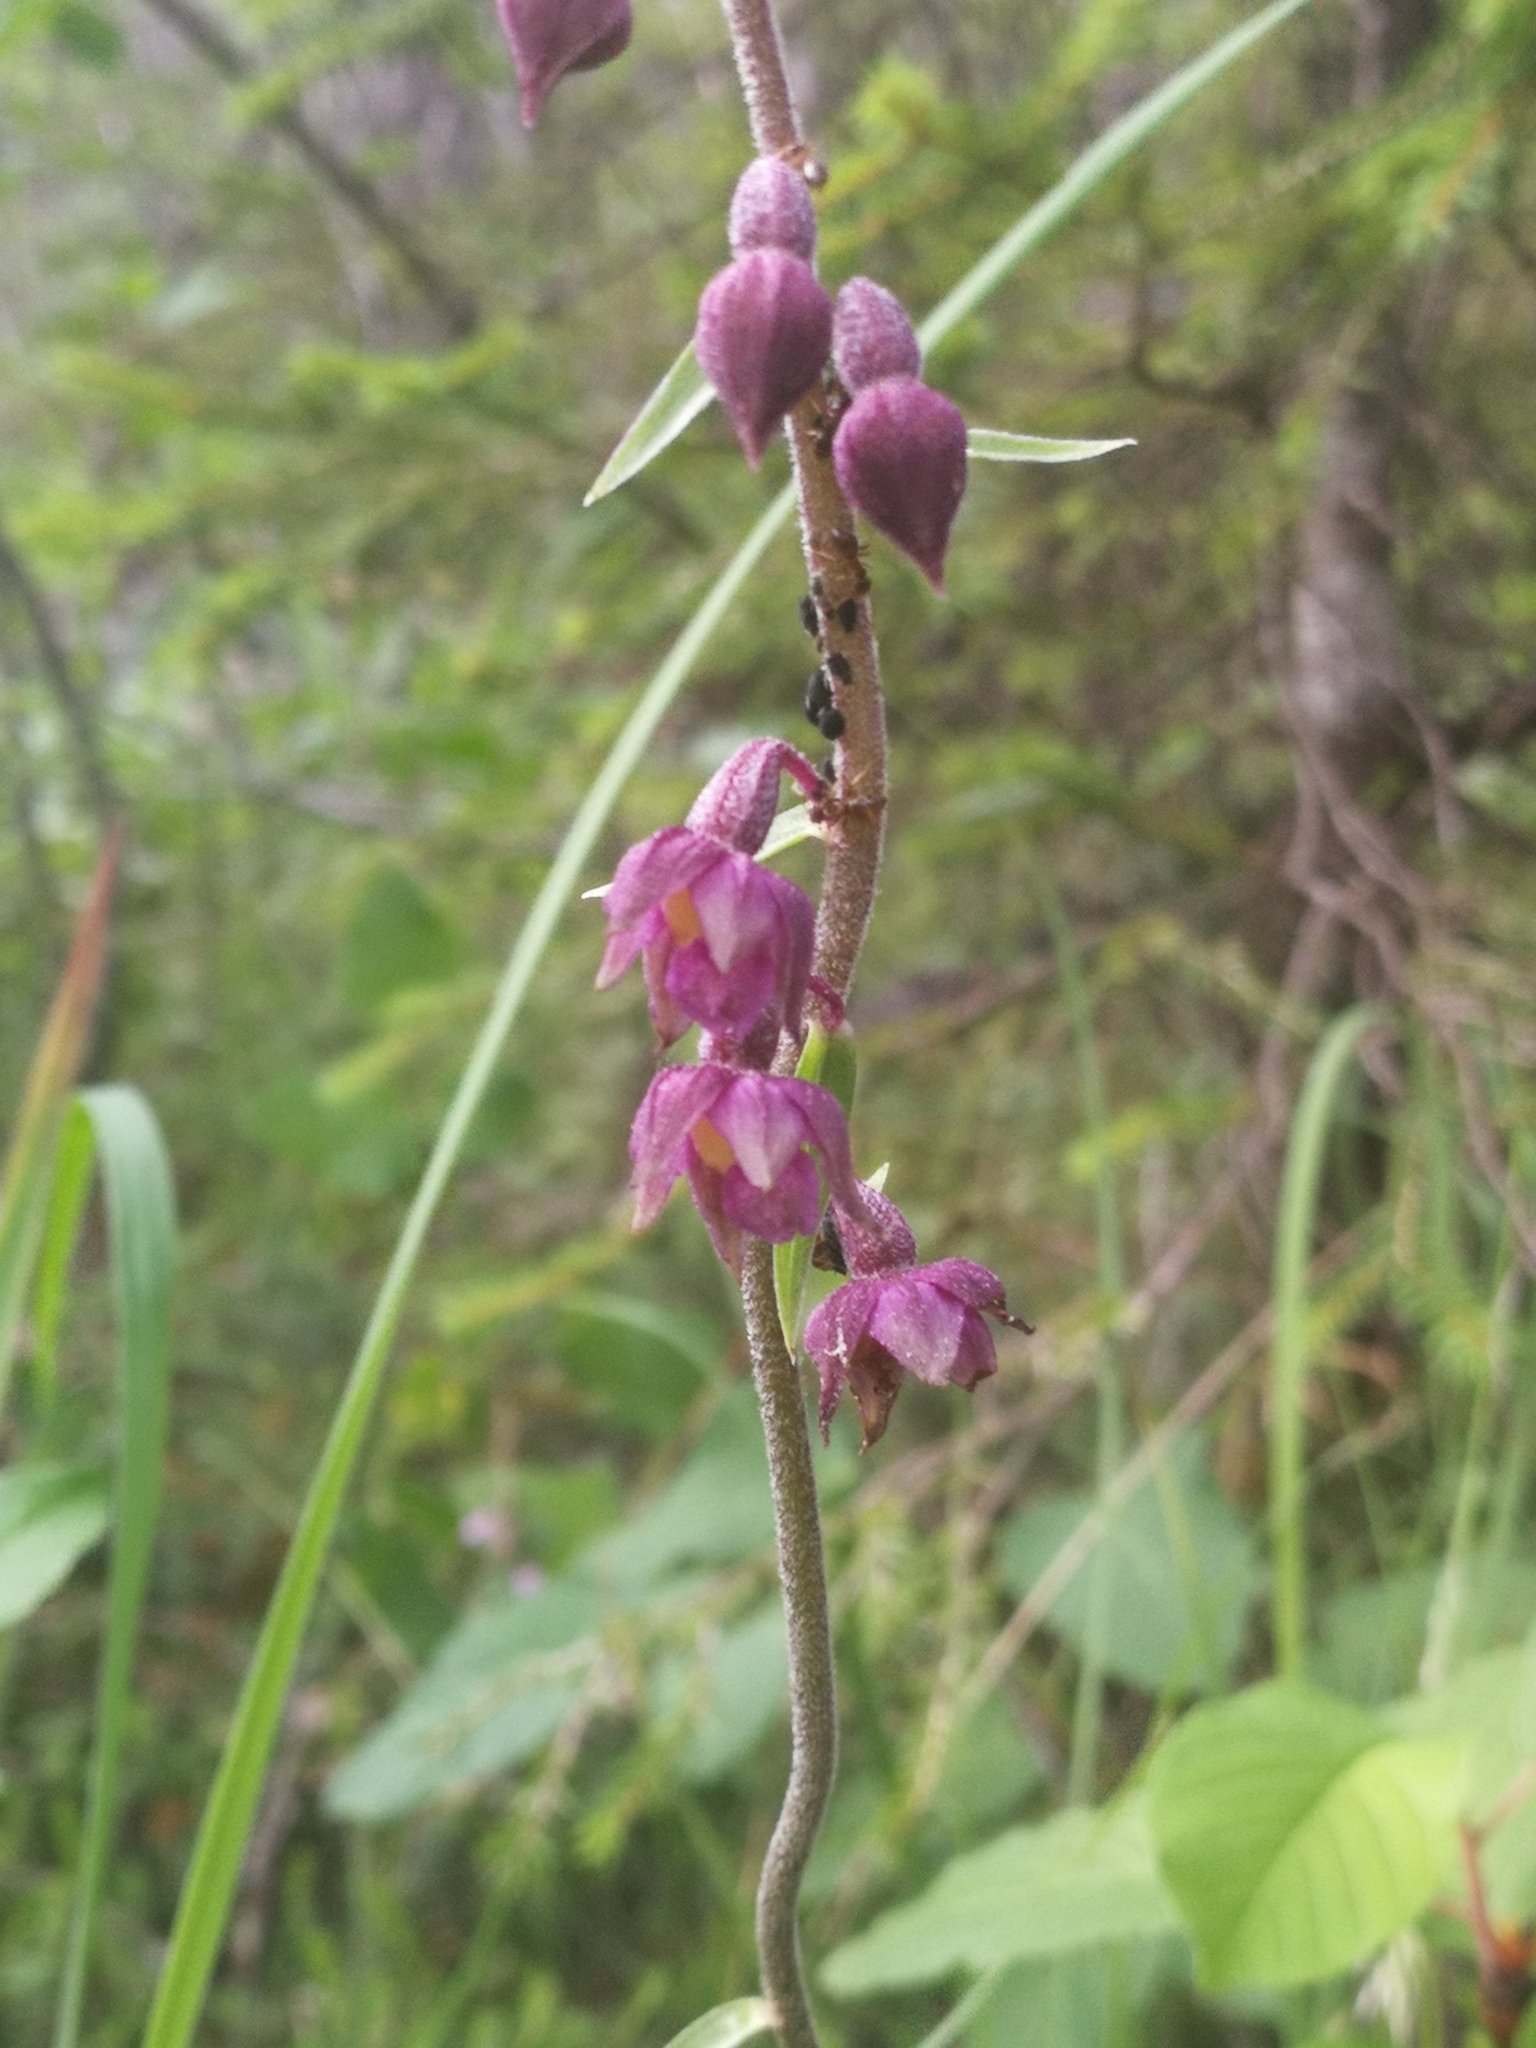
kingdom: Plantae
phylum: Tracheophyta
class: Liliopsida
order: Asparagales
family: Orchidaceae
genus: Epipactis
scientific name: Epipactis atrorubens
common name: Dark-red helleborine
